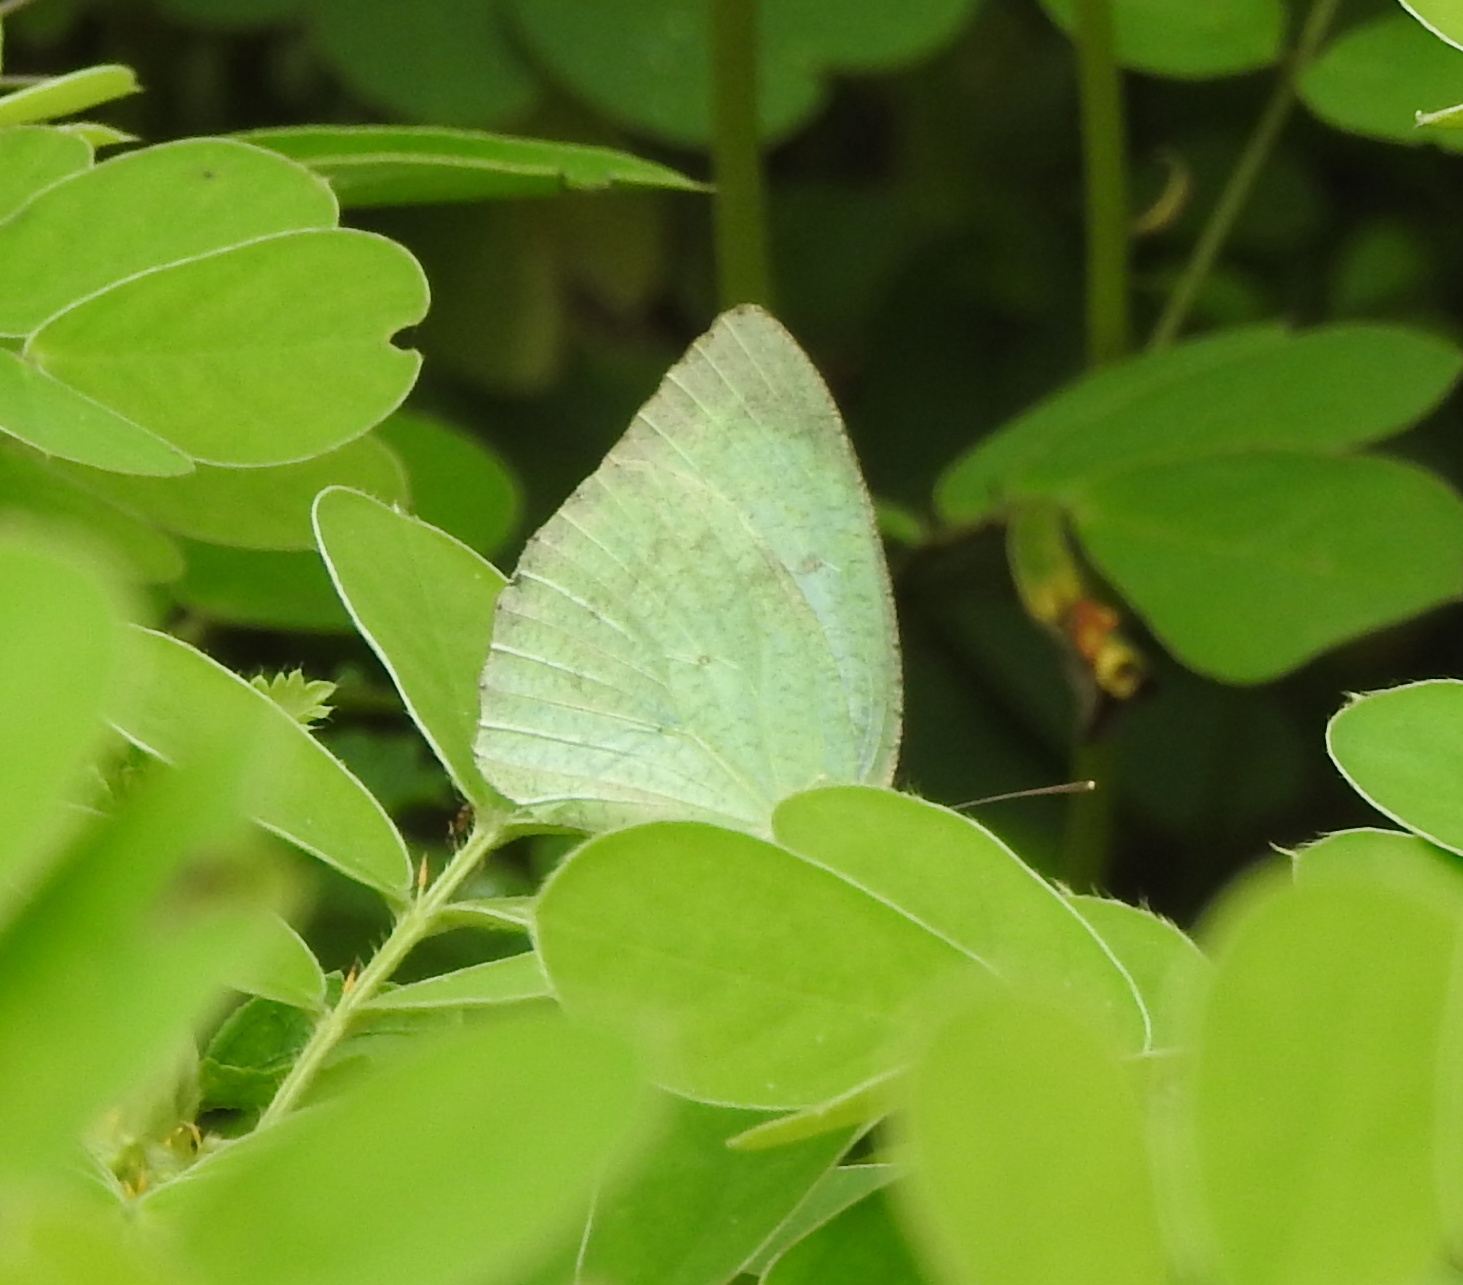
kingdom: Animalia
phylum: Arthropoda
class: Insecta
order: Lepidoptera
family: Pieridae
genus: Catopsilia
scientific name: Catopsilia pyranthe
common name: Mottled emigrant
